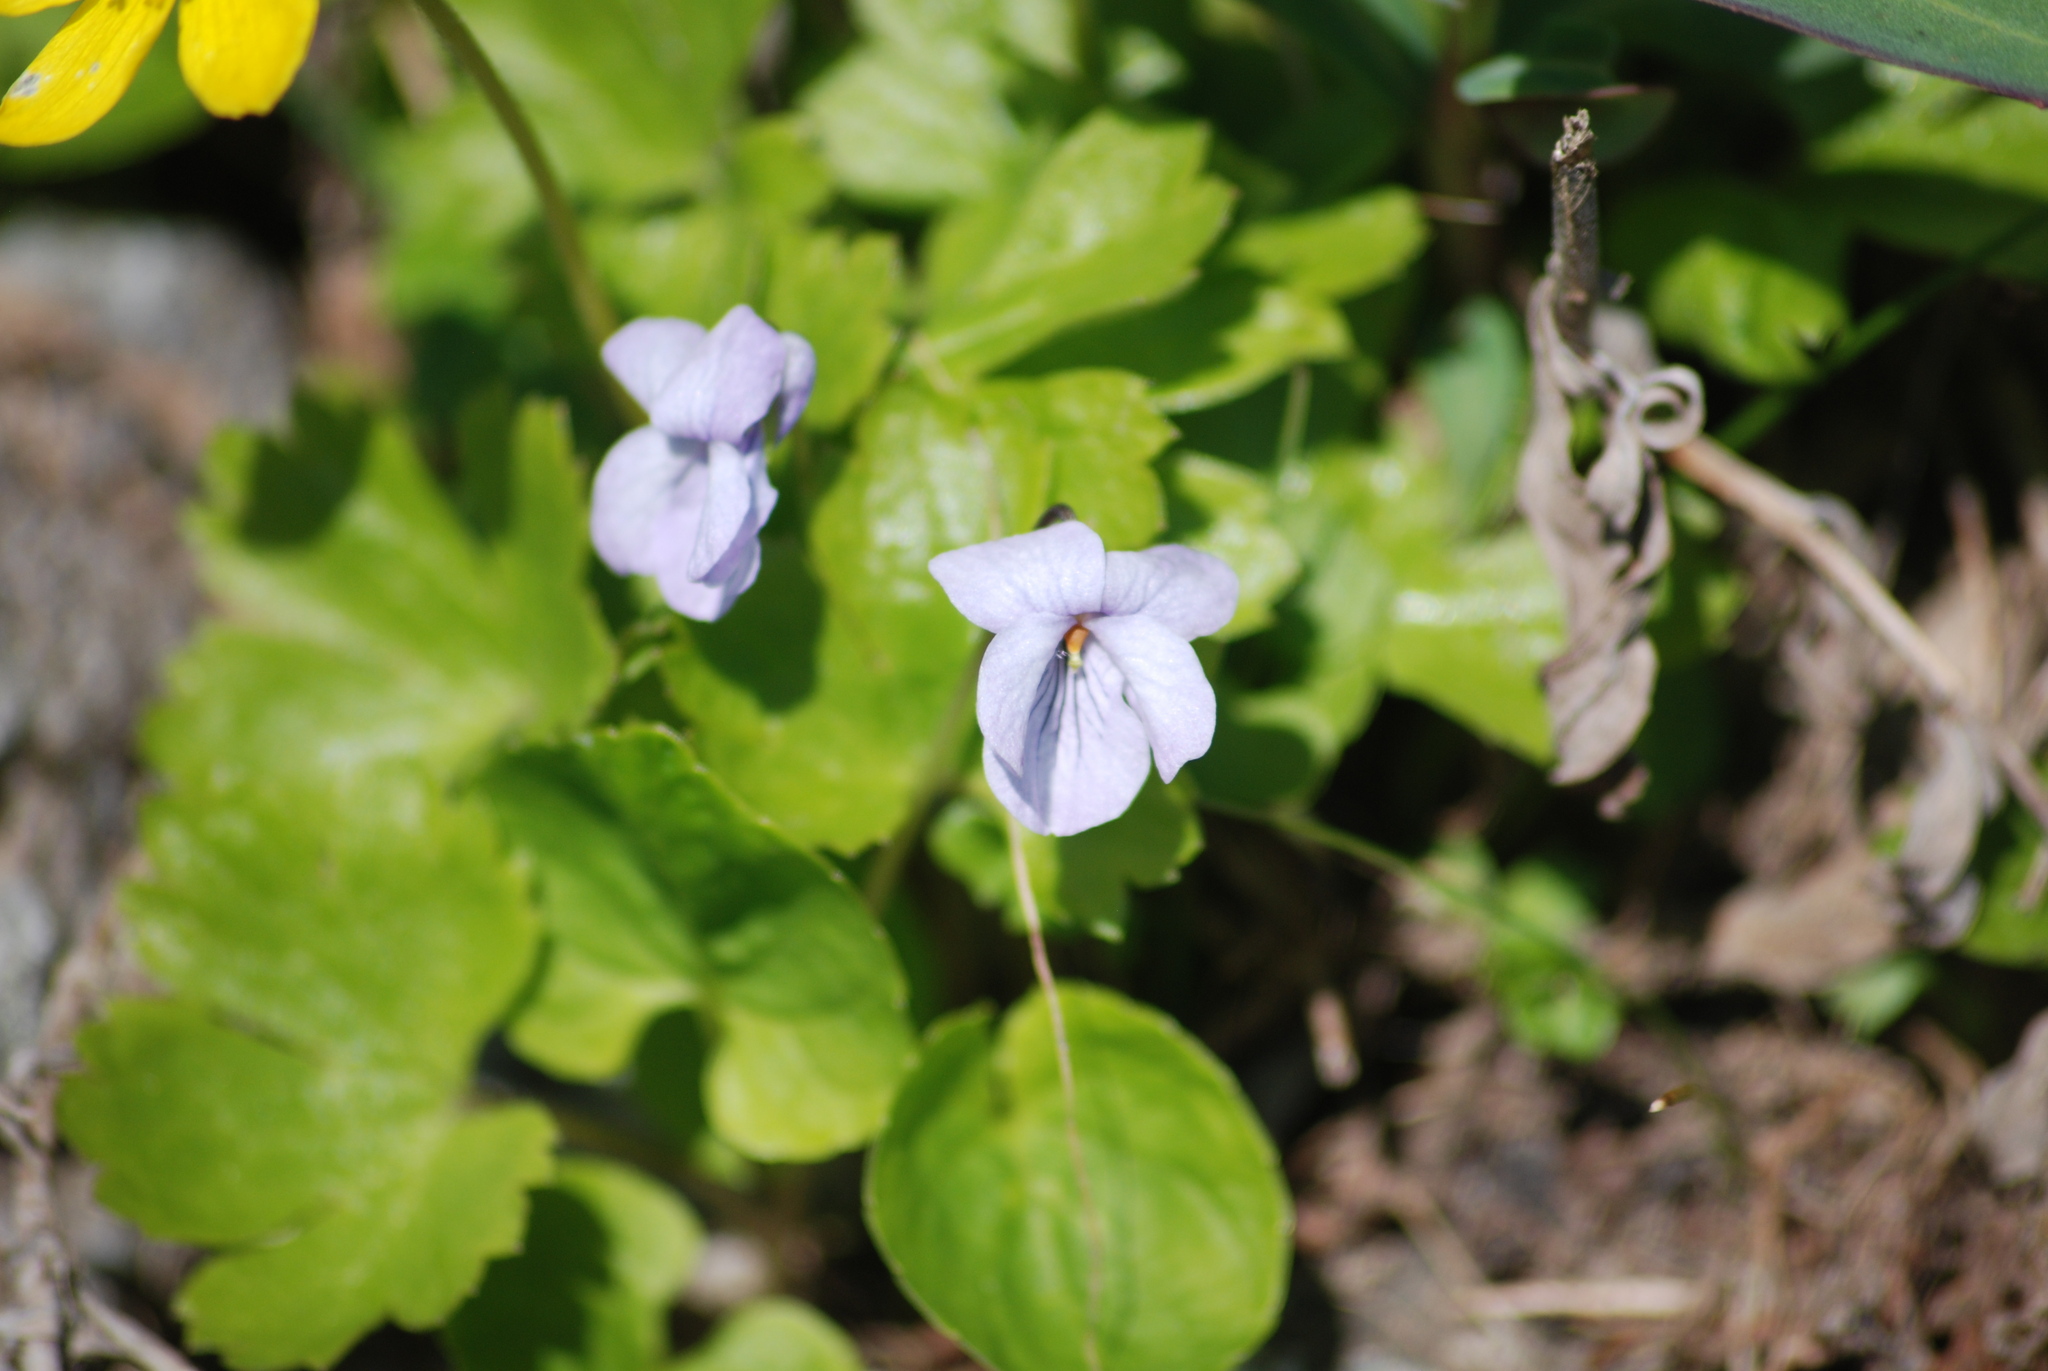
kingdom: Plantae
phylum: Tracheophyta
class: Magnoliopsida
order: Malpighiales
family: Violaceae
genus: Viola
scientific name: Viola epipsila
